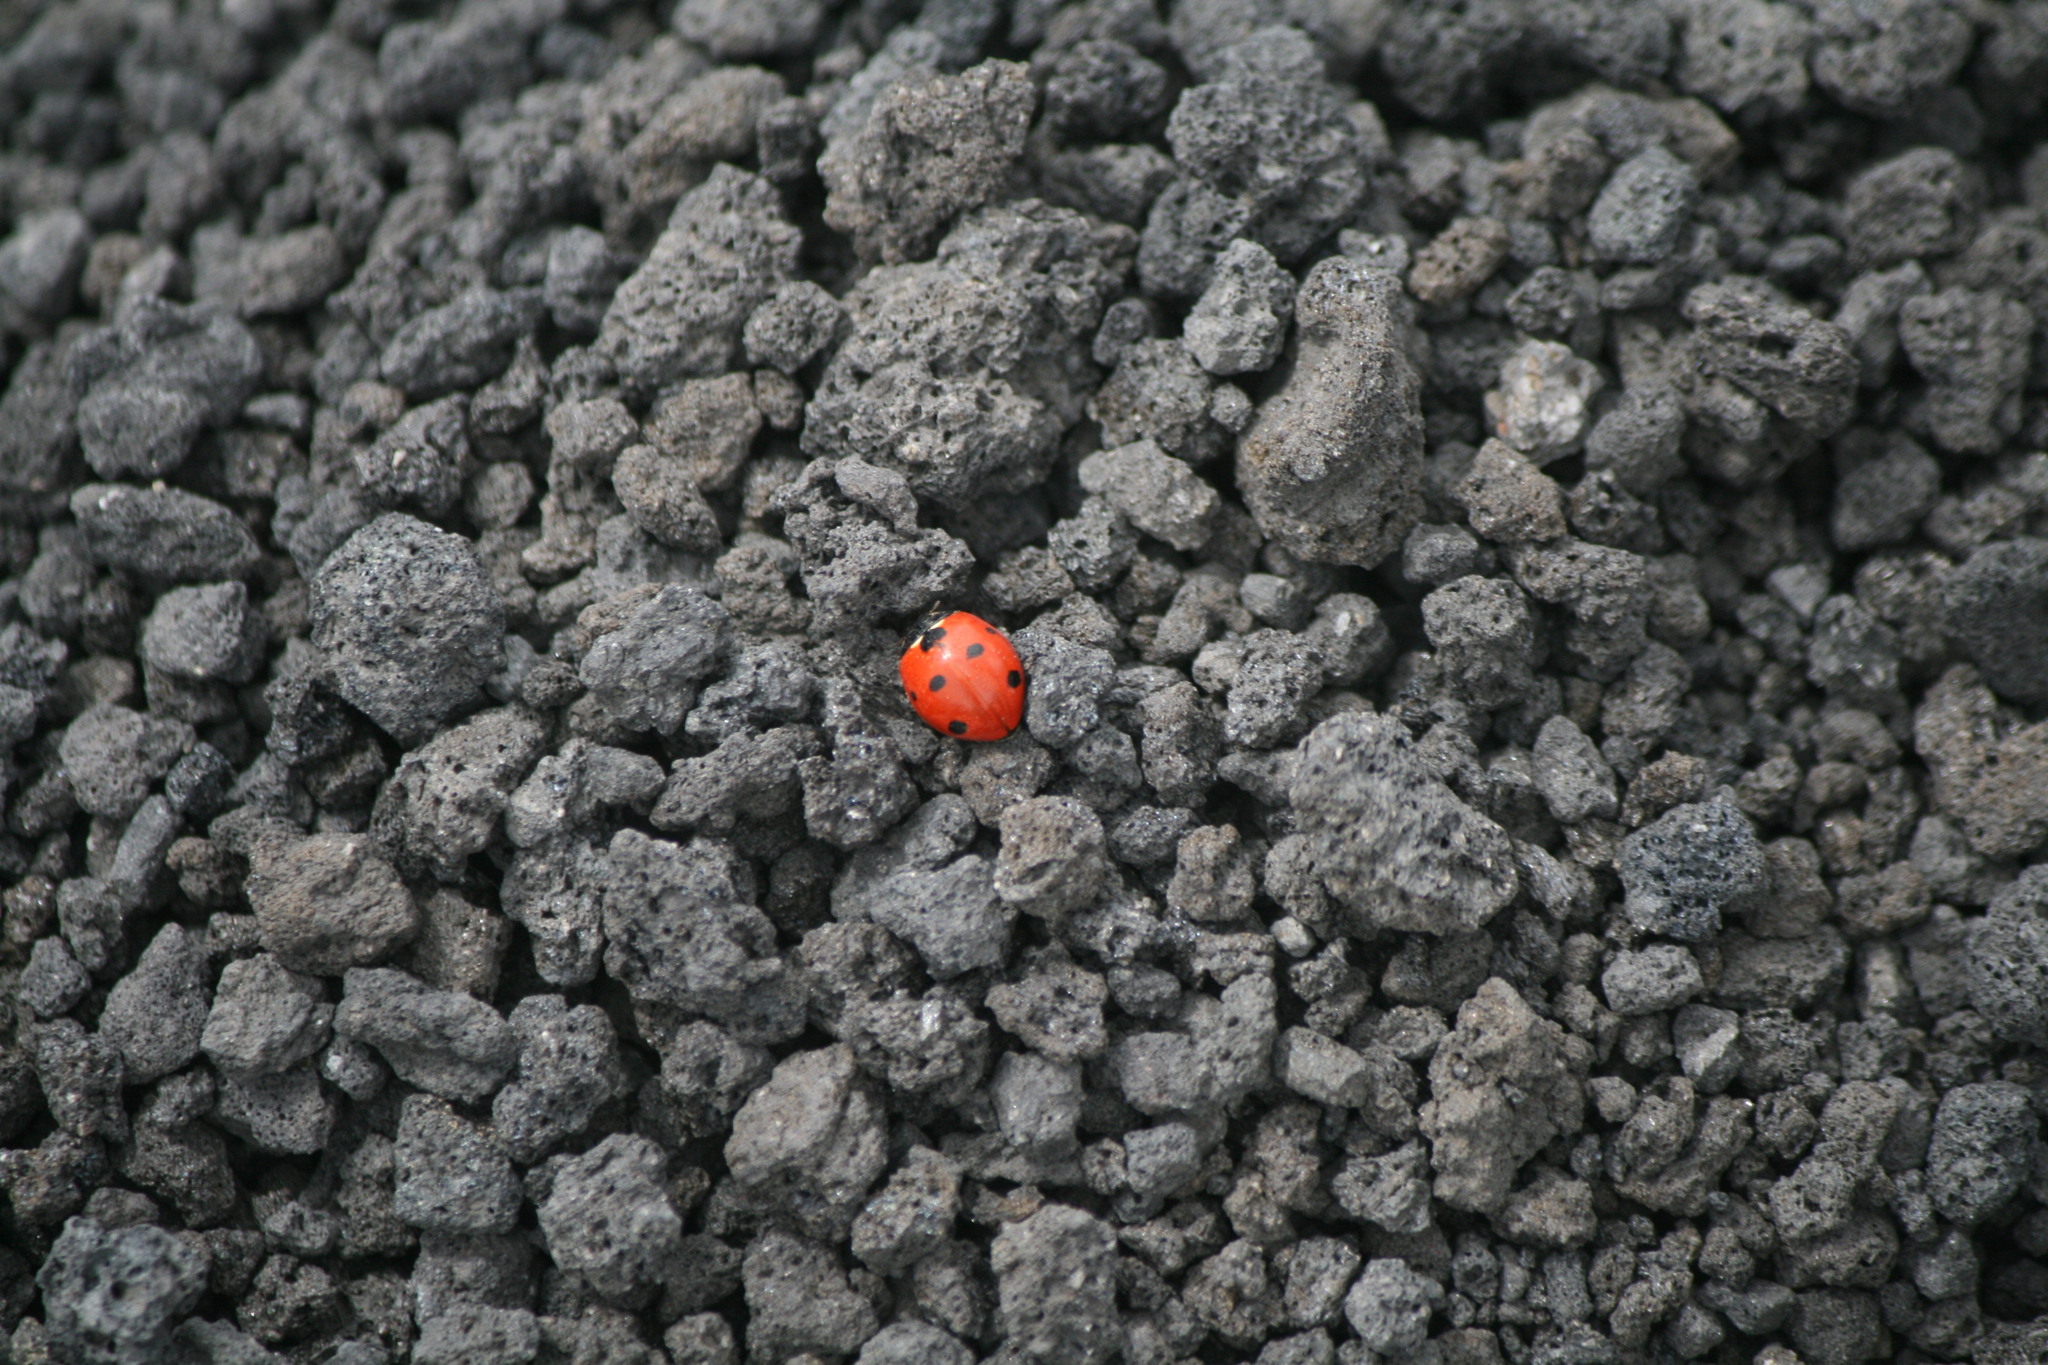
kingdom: Animalia
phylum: Arthropoda
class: Insecta
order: Coleoptera
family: Coccinellidae
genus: Coccinella
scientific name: Coccinella septempunctata
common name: Sevenspotted lady beetle
